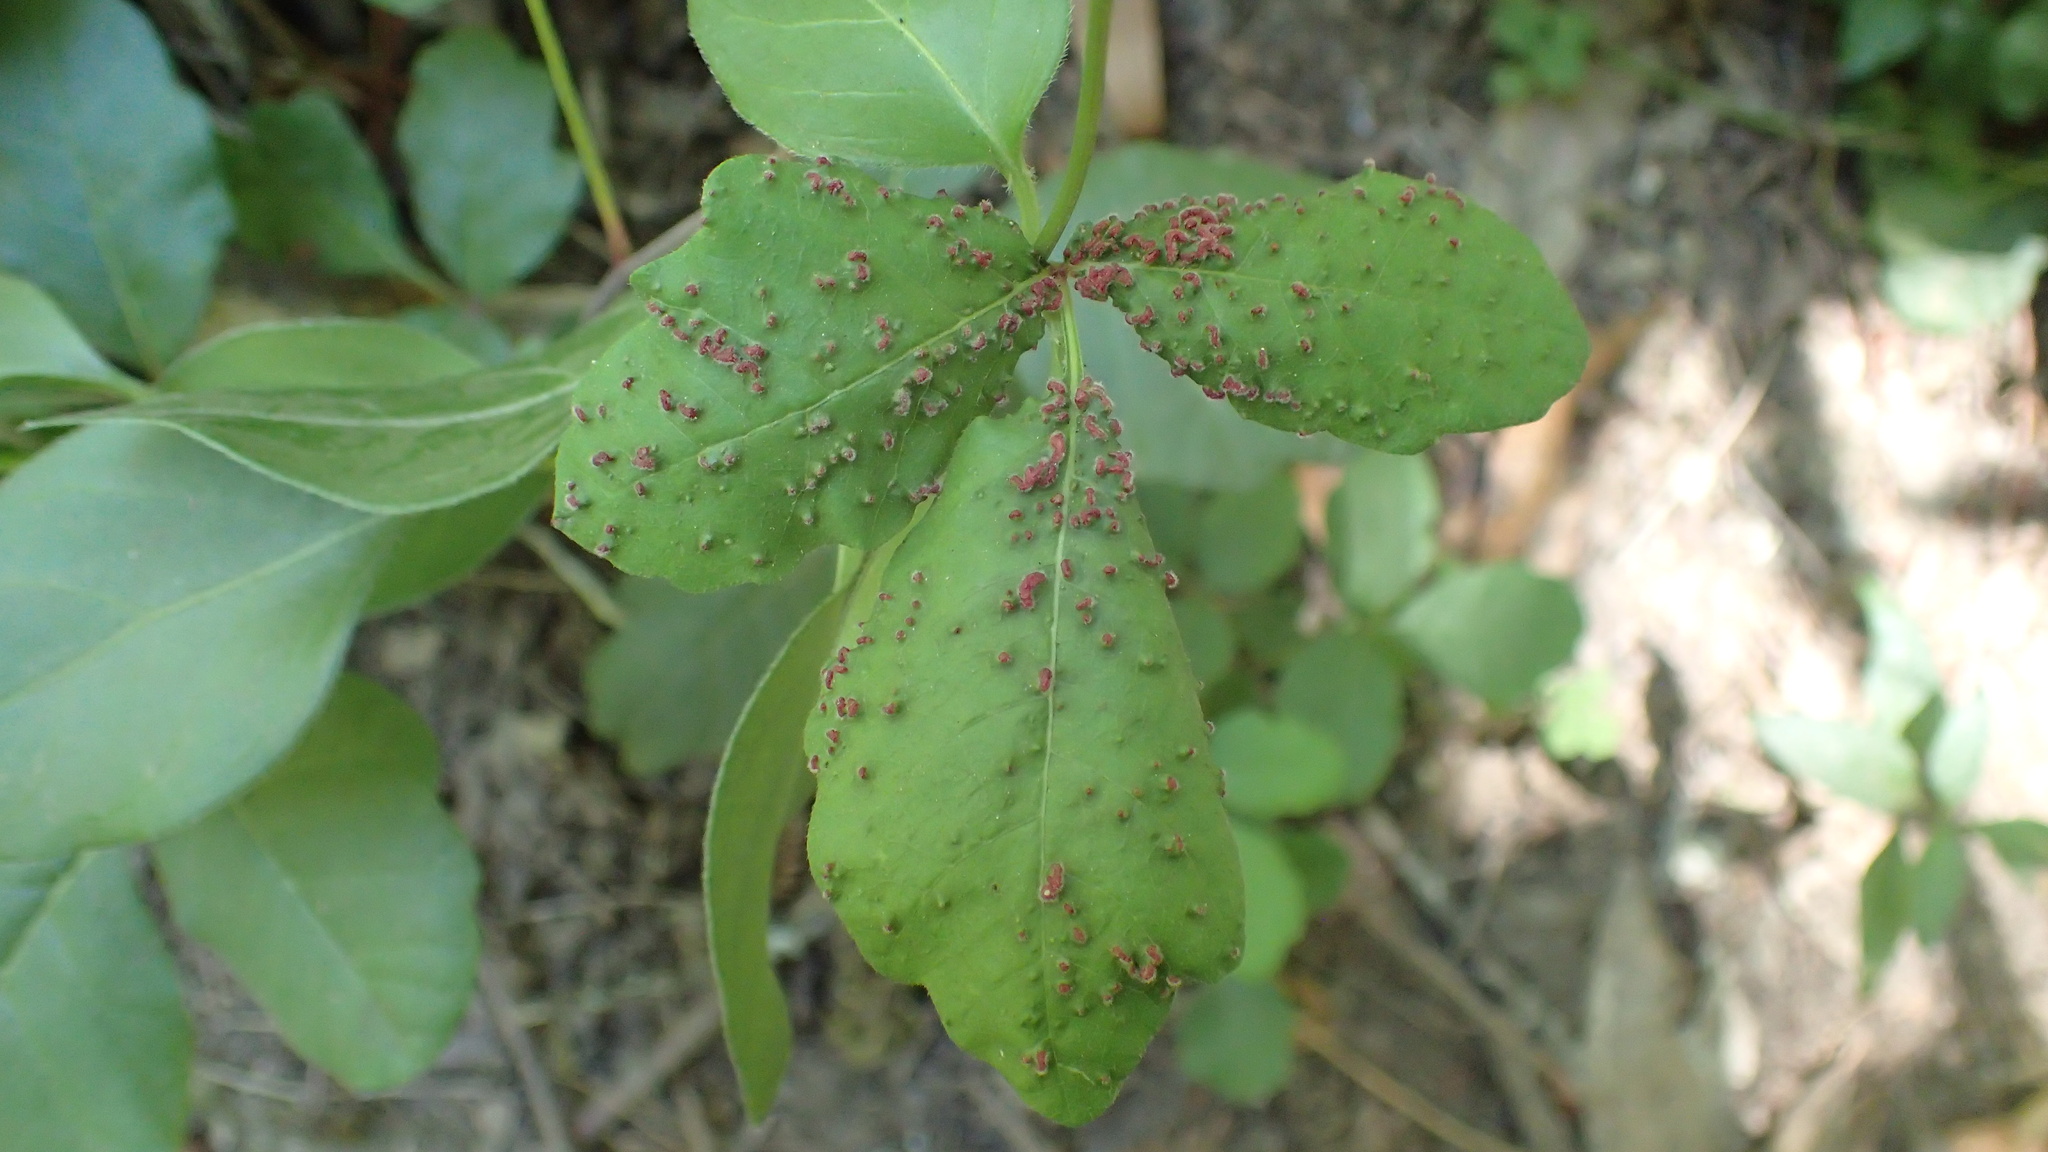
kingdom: Animalia
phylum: Arthropoda
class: Arachnida
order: Trombidiformes
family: Eriophyidae
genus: Aculops
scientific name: Aculops
